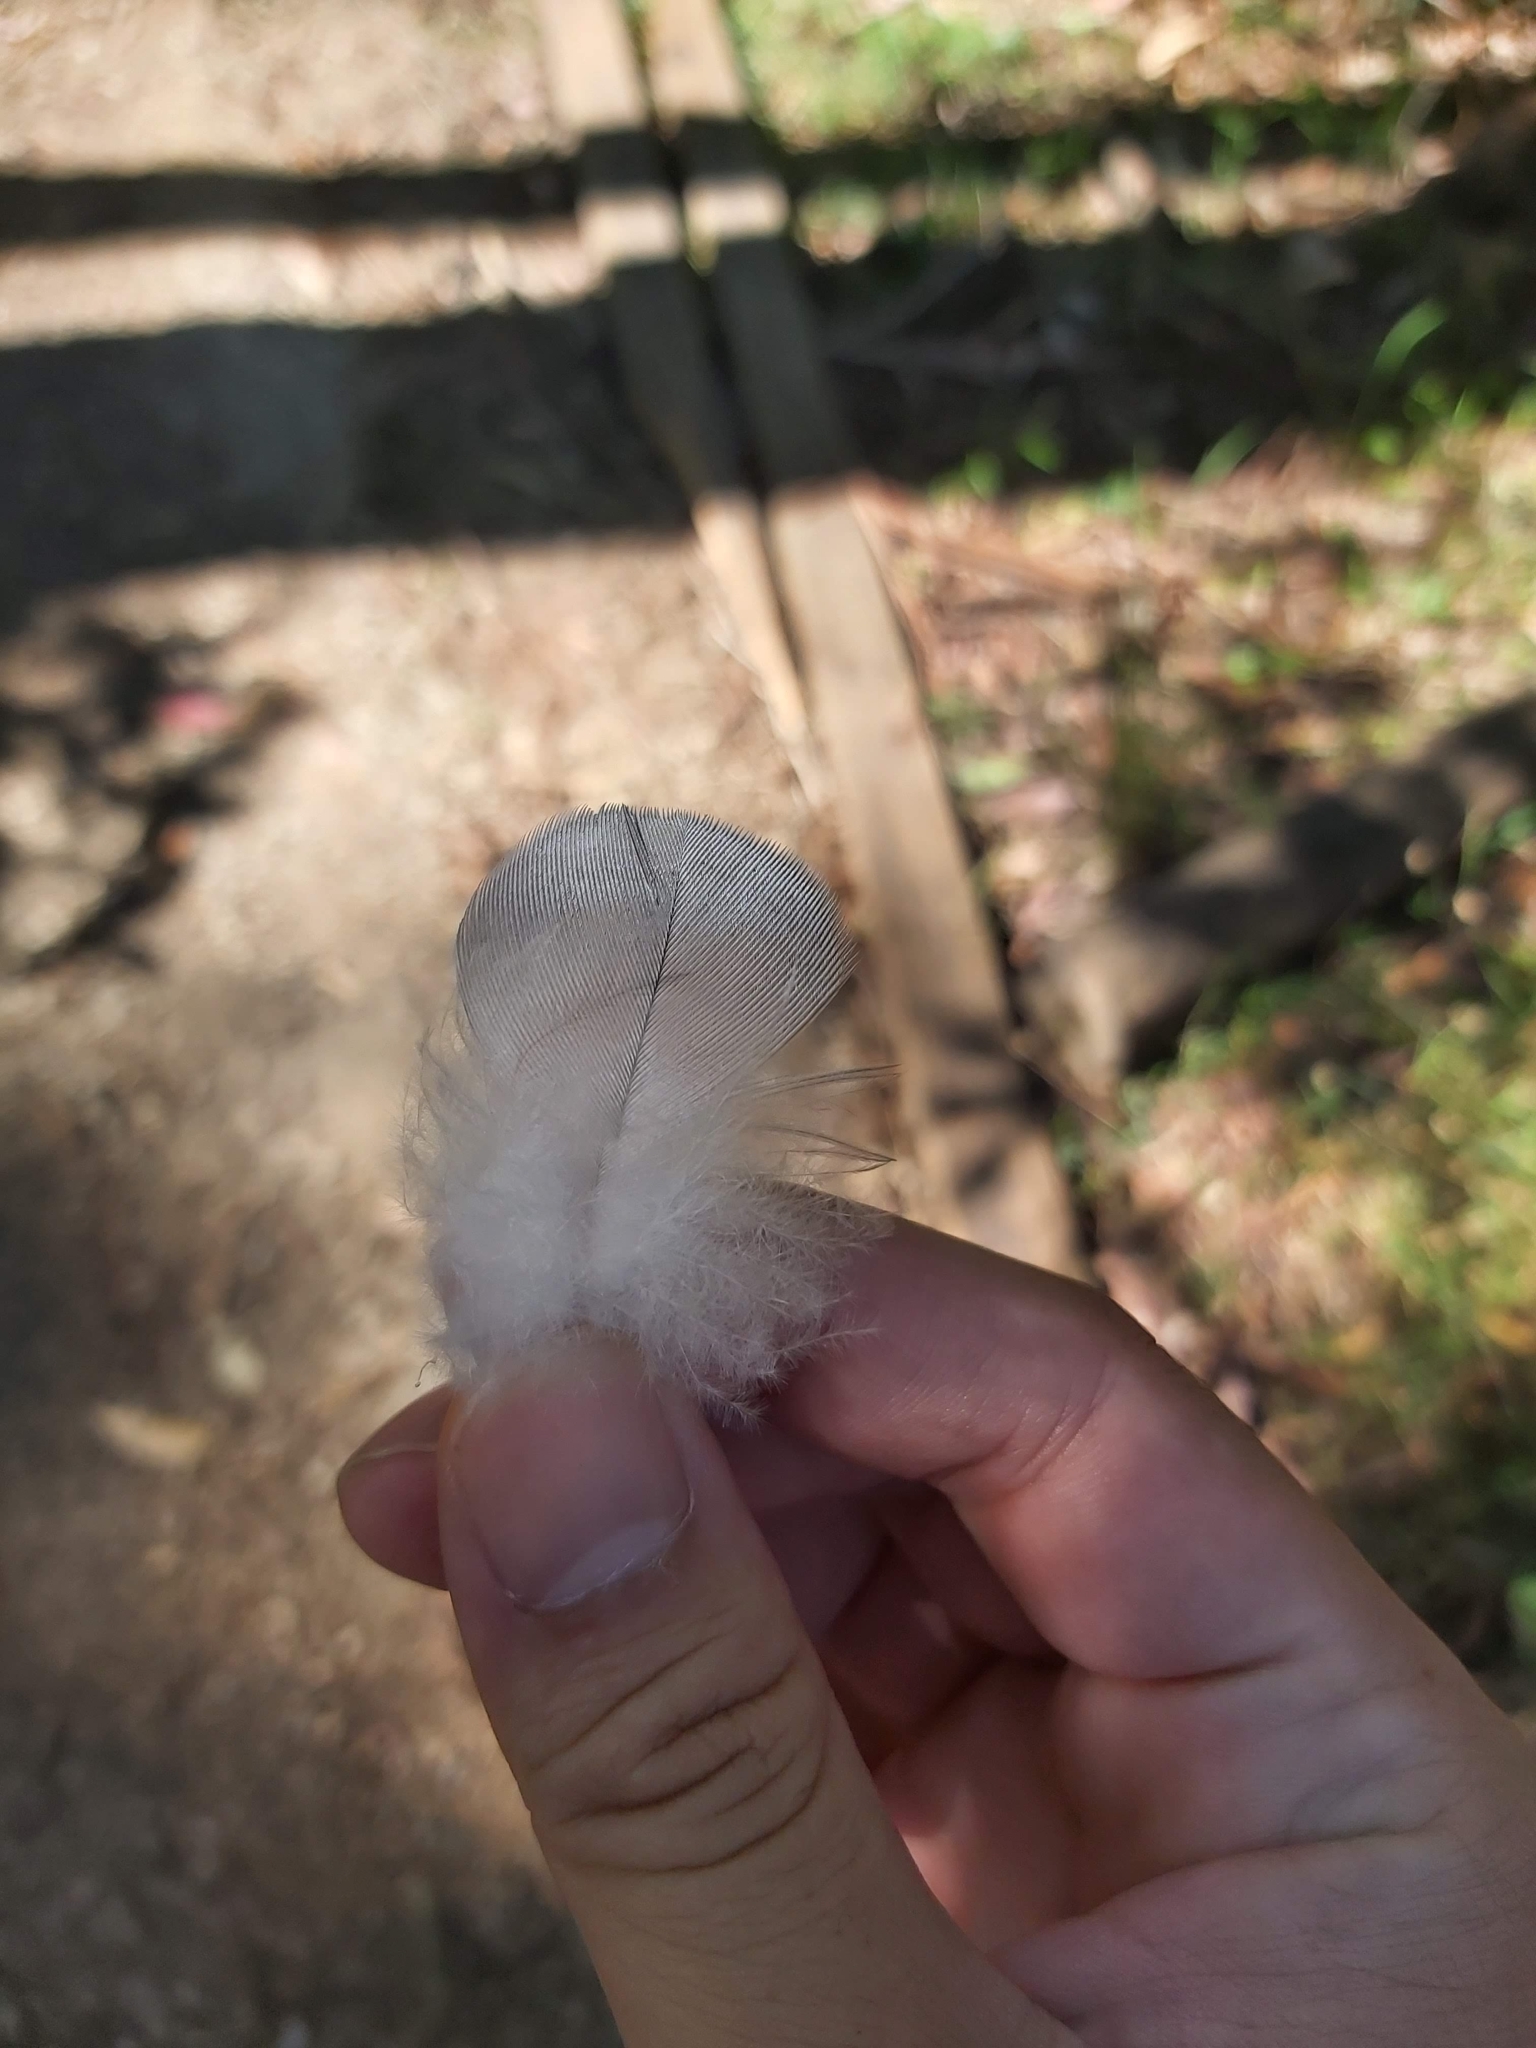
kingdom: Animalia
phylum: Chordata
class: Aves
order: Psittaciformes
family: Psittacidae
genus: Eolophus
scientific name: Eolophus roseicapilla
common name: Galah
